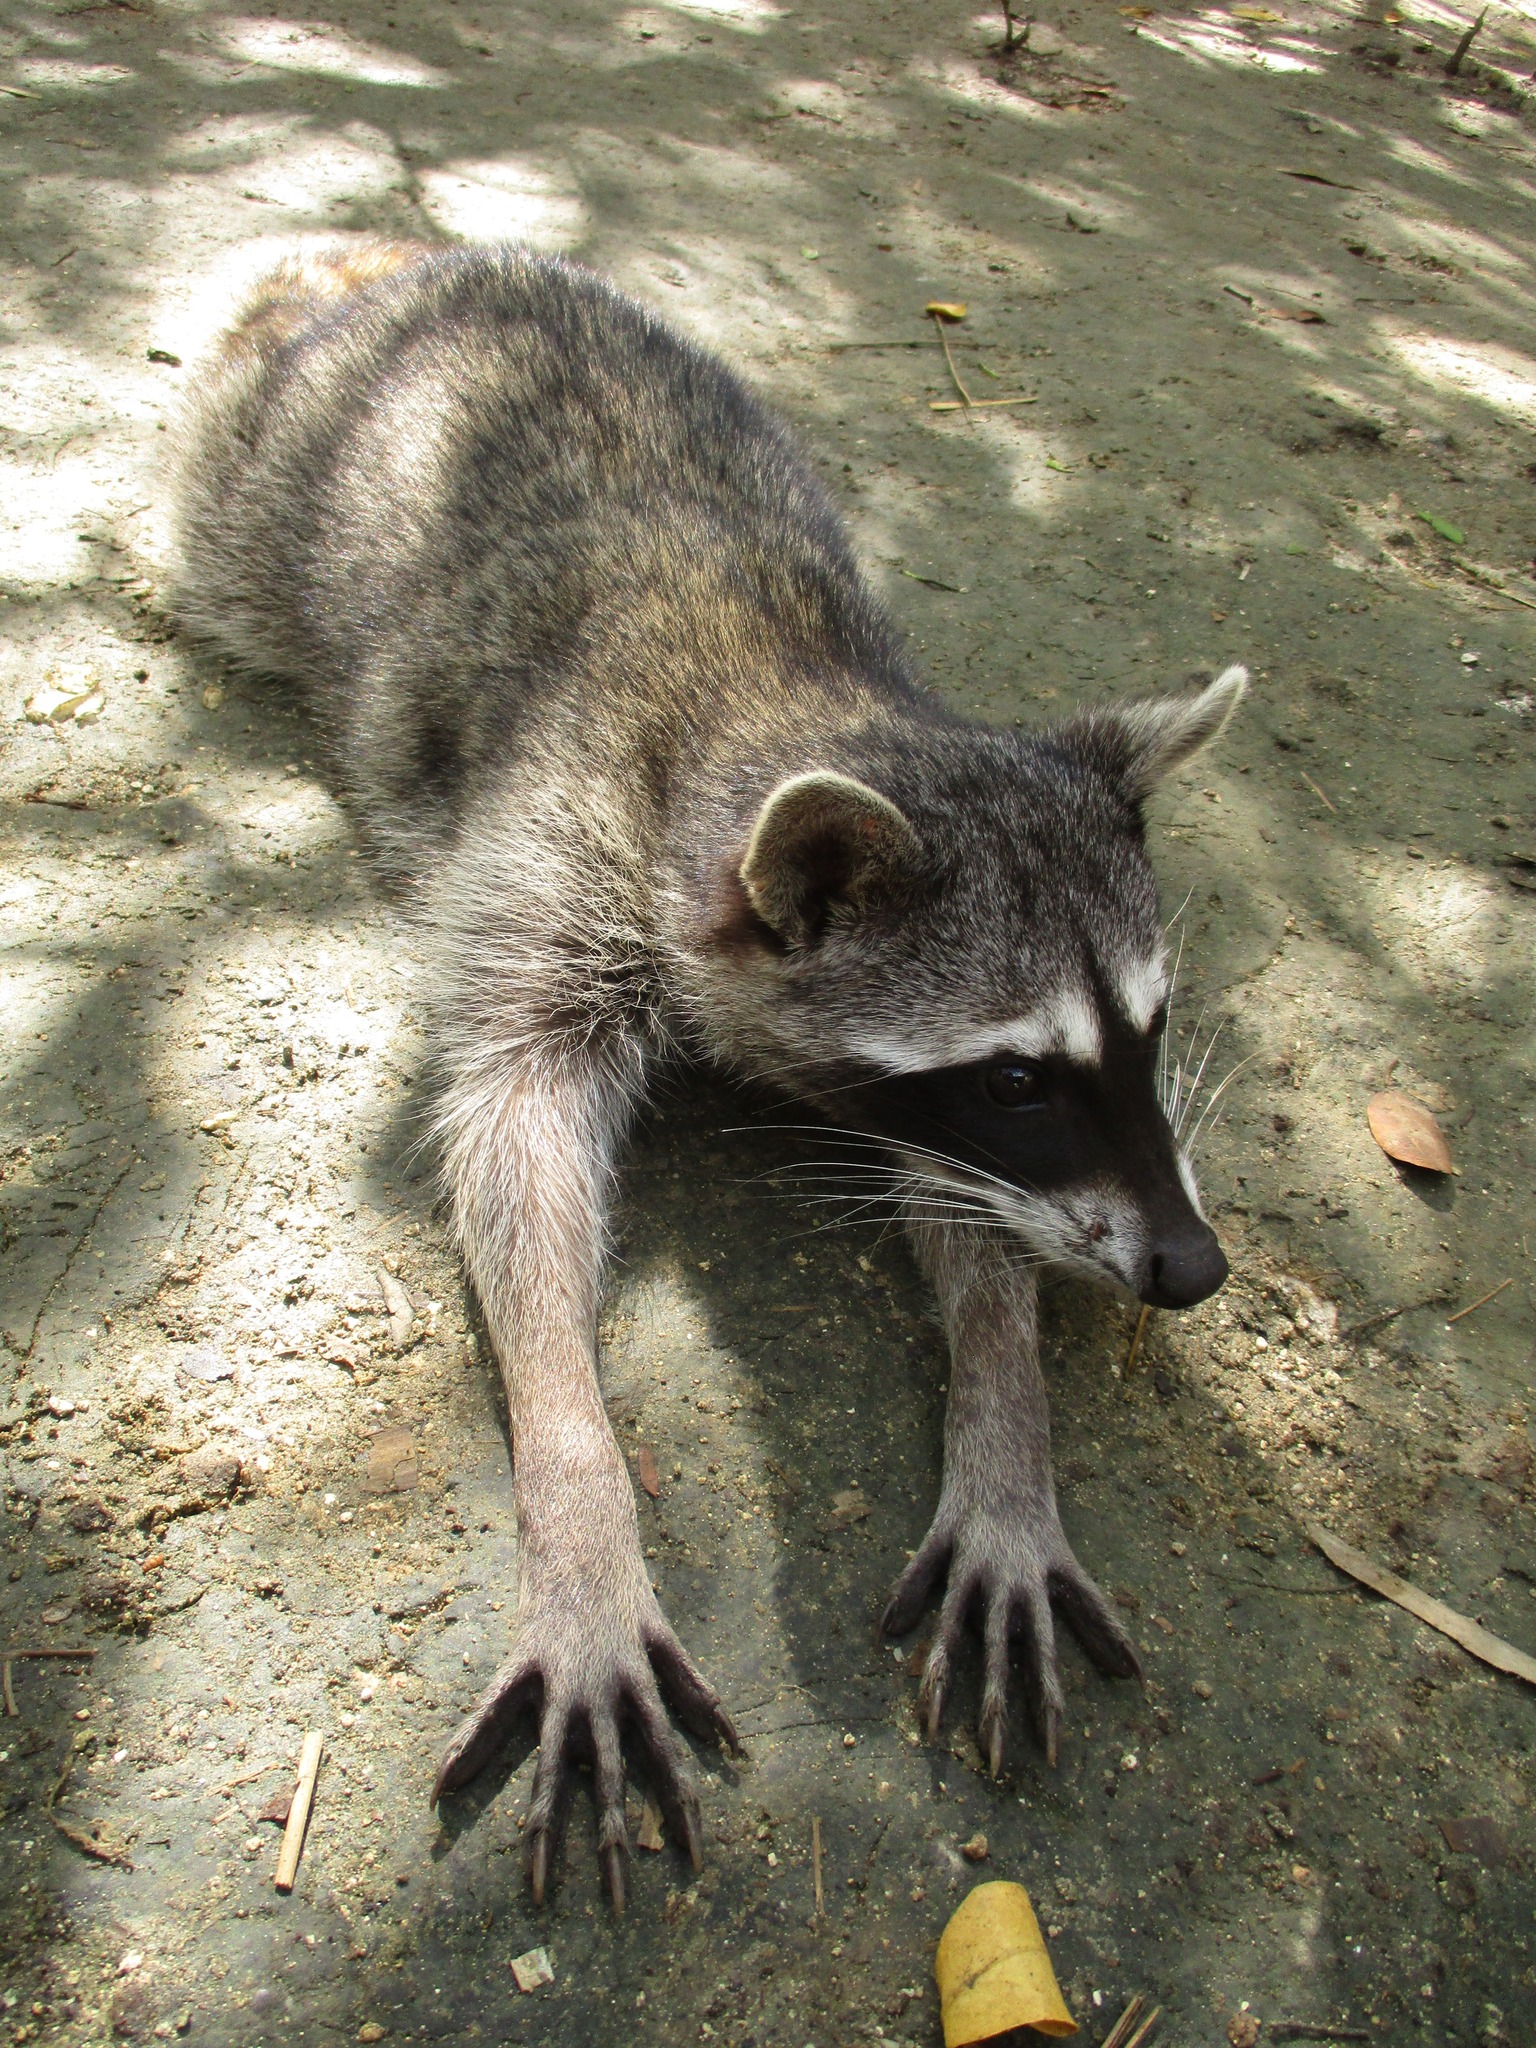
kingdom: Animalia
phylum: Chordata
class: Mammalia
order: Carnivora
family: Procyonidae
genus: Procyon
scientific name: Procyon lotor
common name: Raccoon
